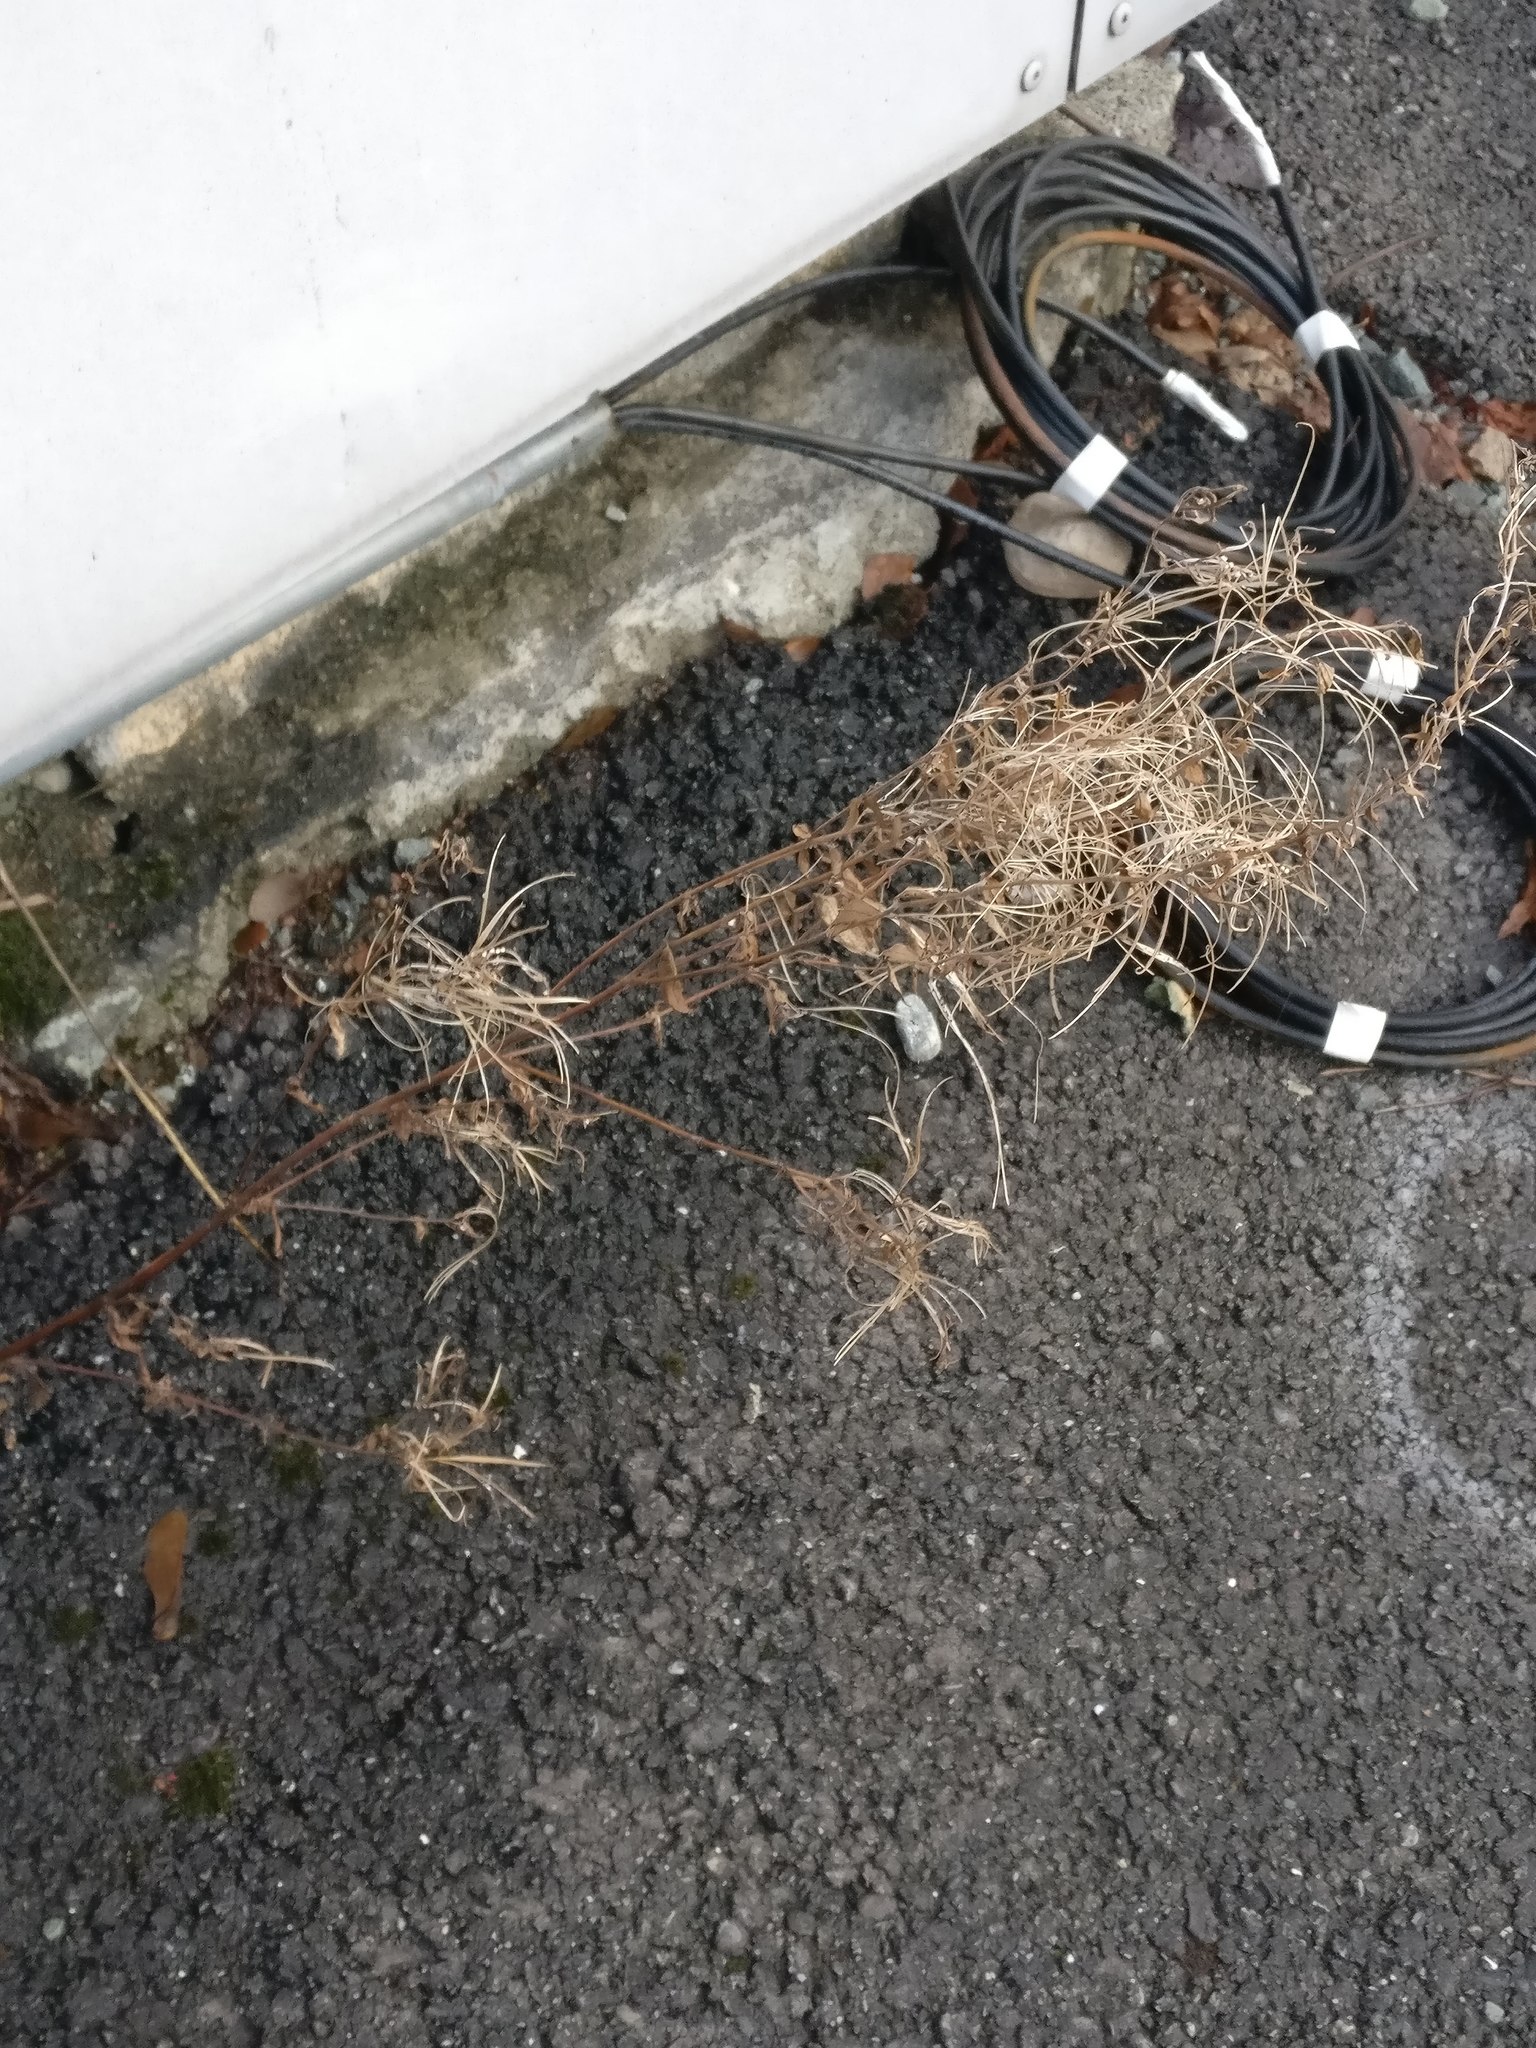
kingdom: Plantae
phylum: Tracheophyta
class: Magnoliopsida
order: Myrtales
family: Onagraceae
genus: Chamaenerion
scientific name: Chamaenerion angustifolium
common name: Fireweed
